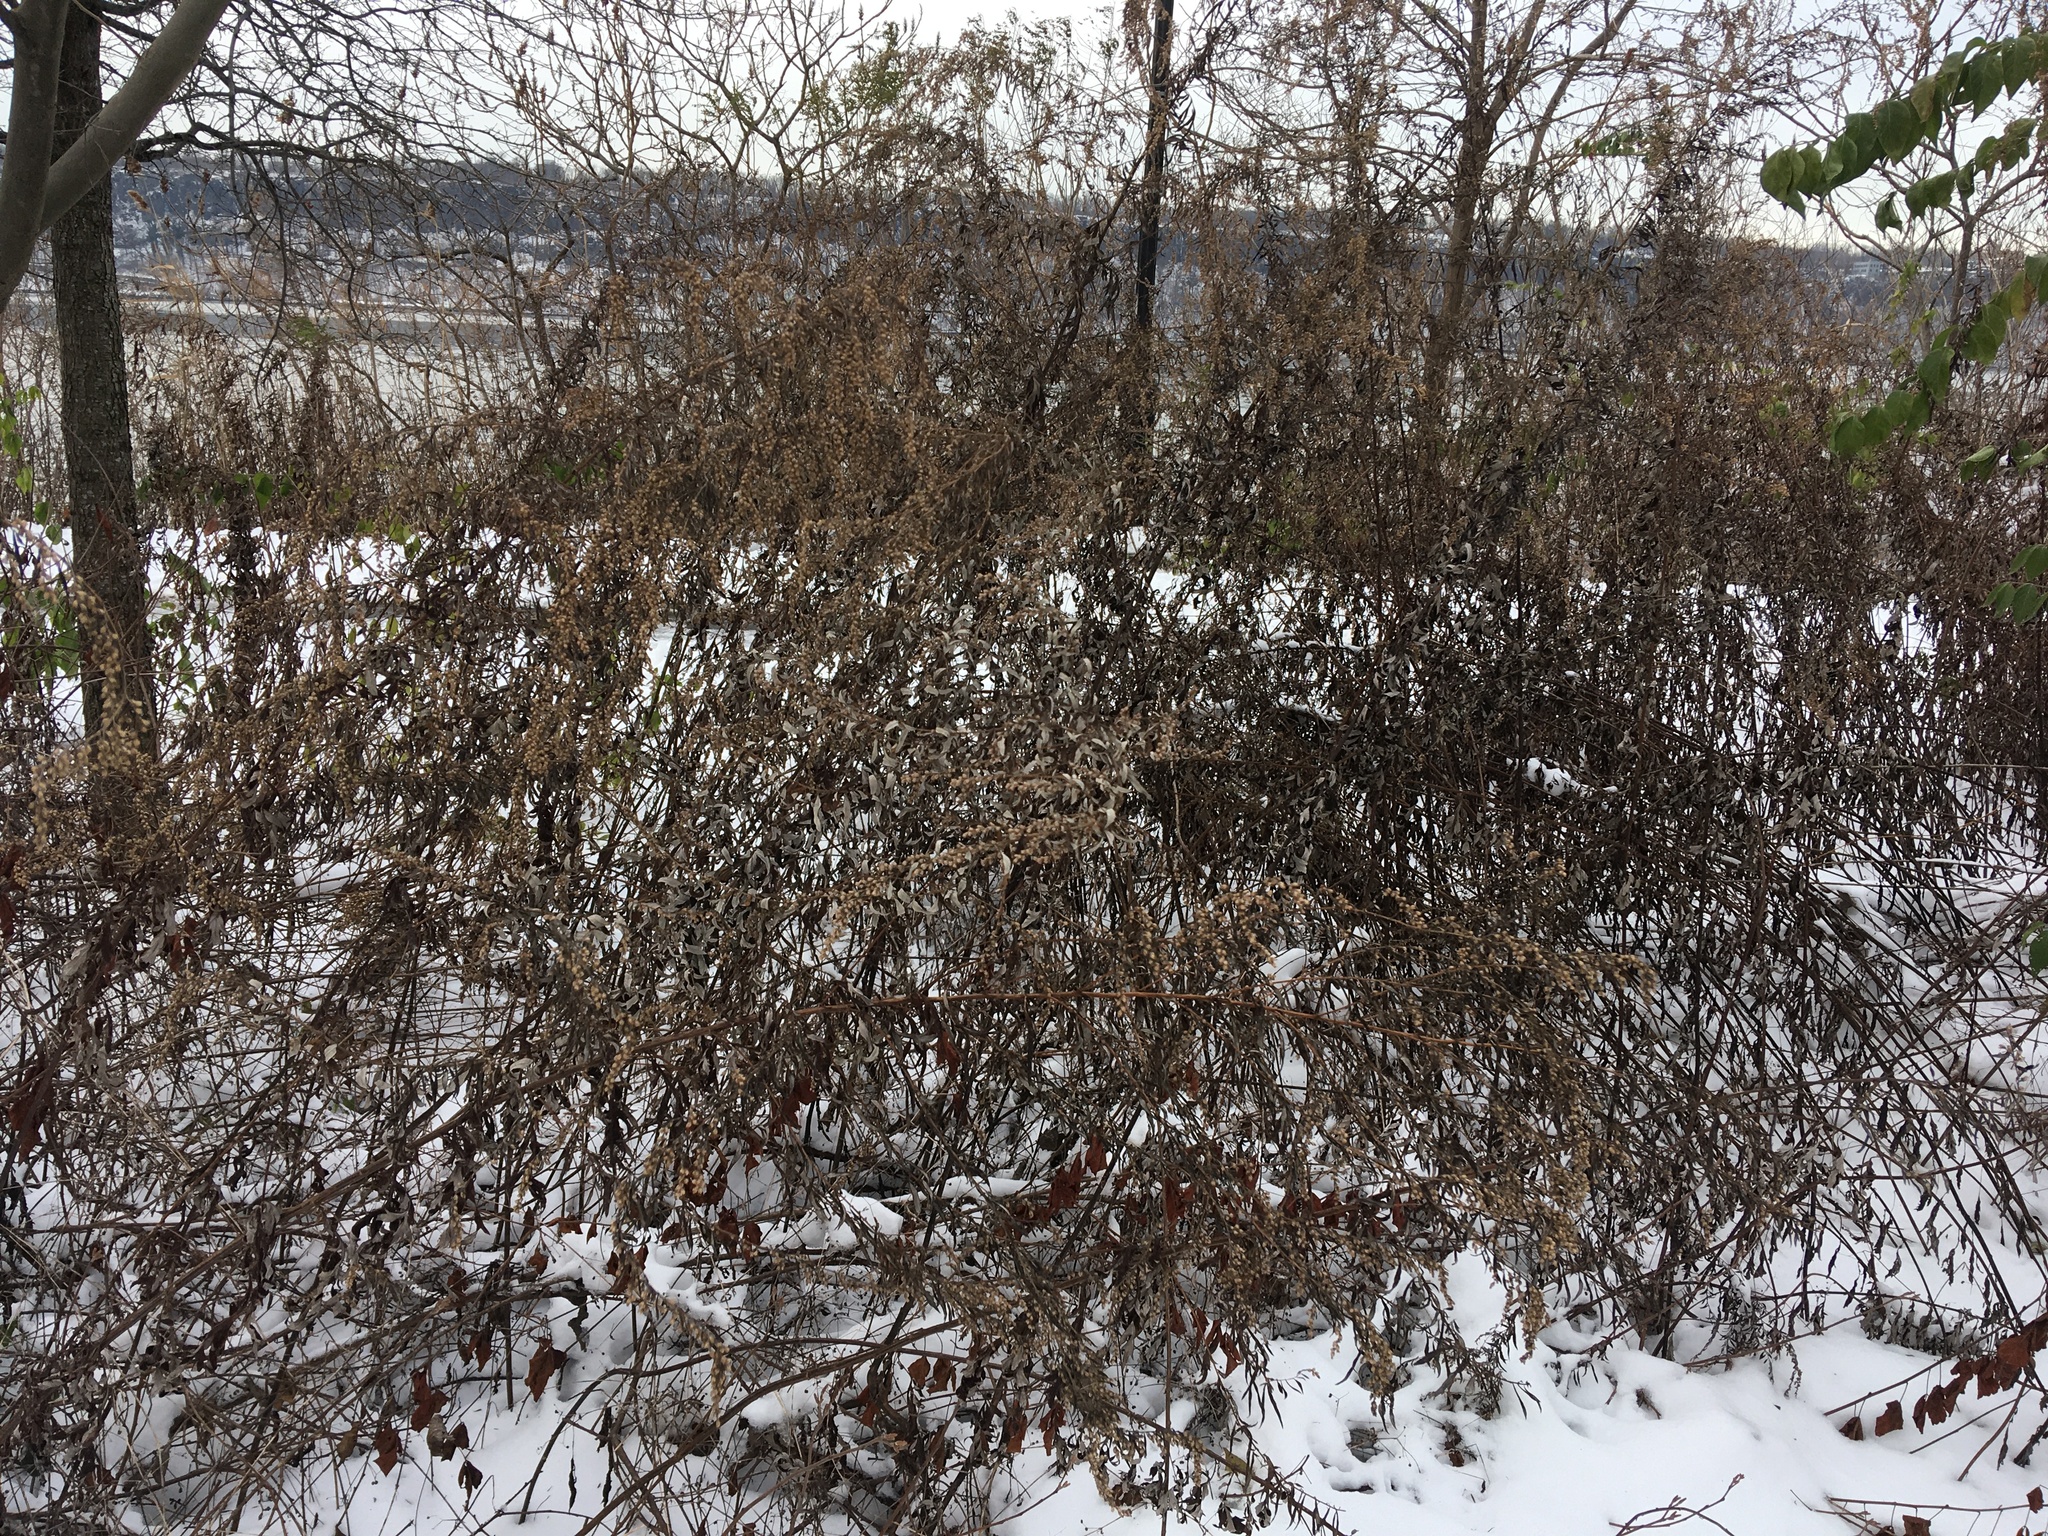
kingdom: Plantae
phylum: Tracheophyta
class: Magnoliopsida
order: Asterales
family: Asteraceae
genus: Artemisia
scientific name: Artemisia vulgaris
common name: Mugwort
